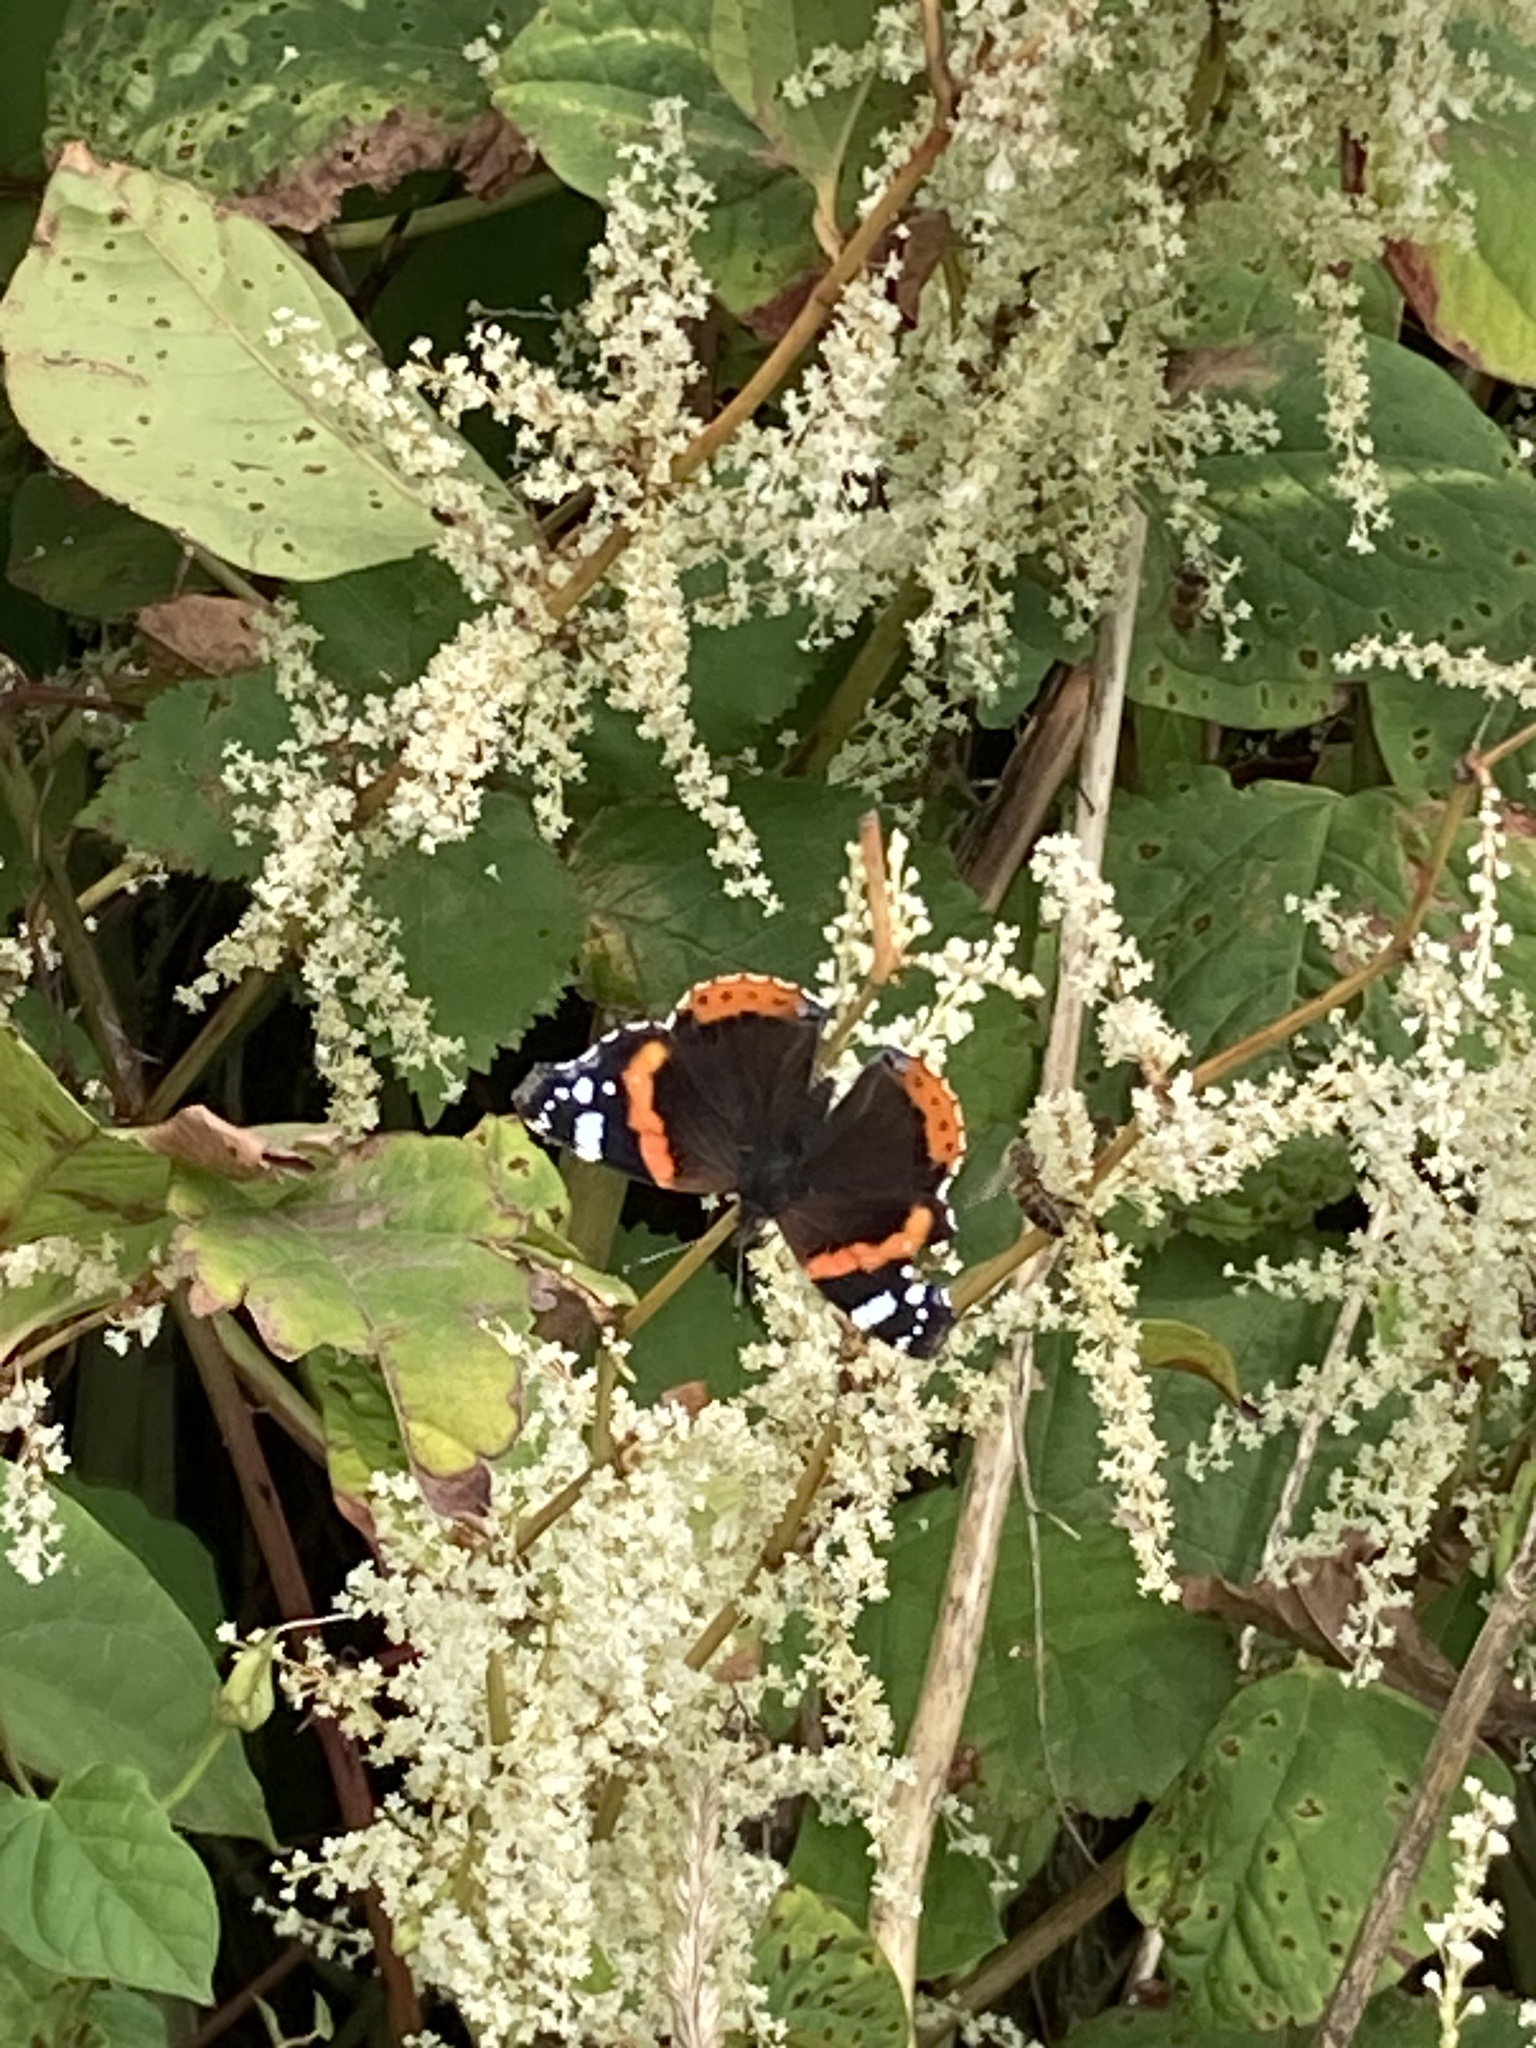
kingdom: Animalia
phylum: Arthropoda
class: Insecta
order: Lepidoptera
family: Nymphalidae
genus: Vanessa
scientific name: Vanessa atalanta
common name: Red admiral
